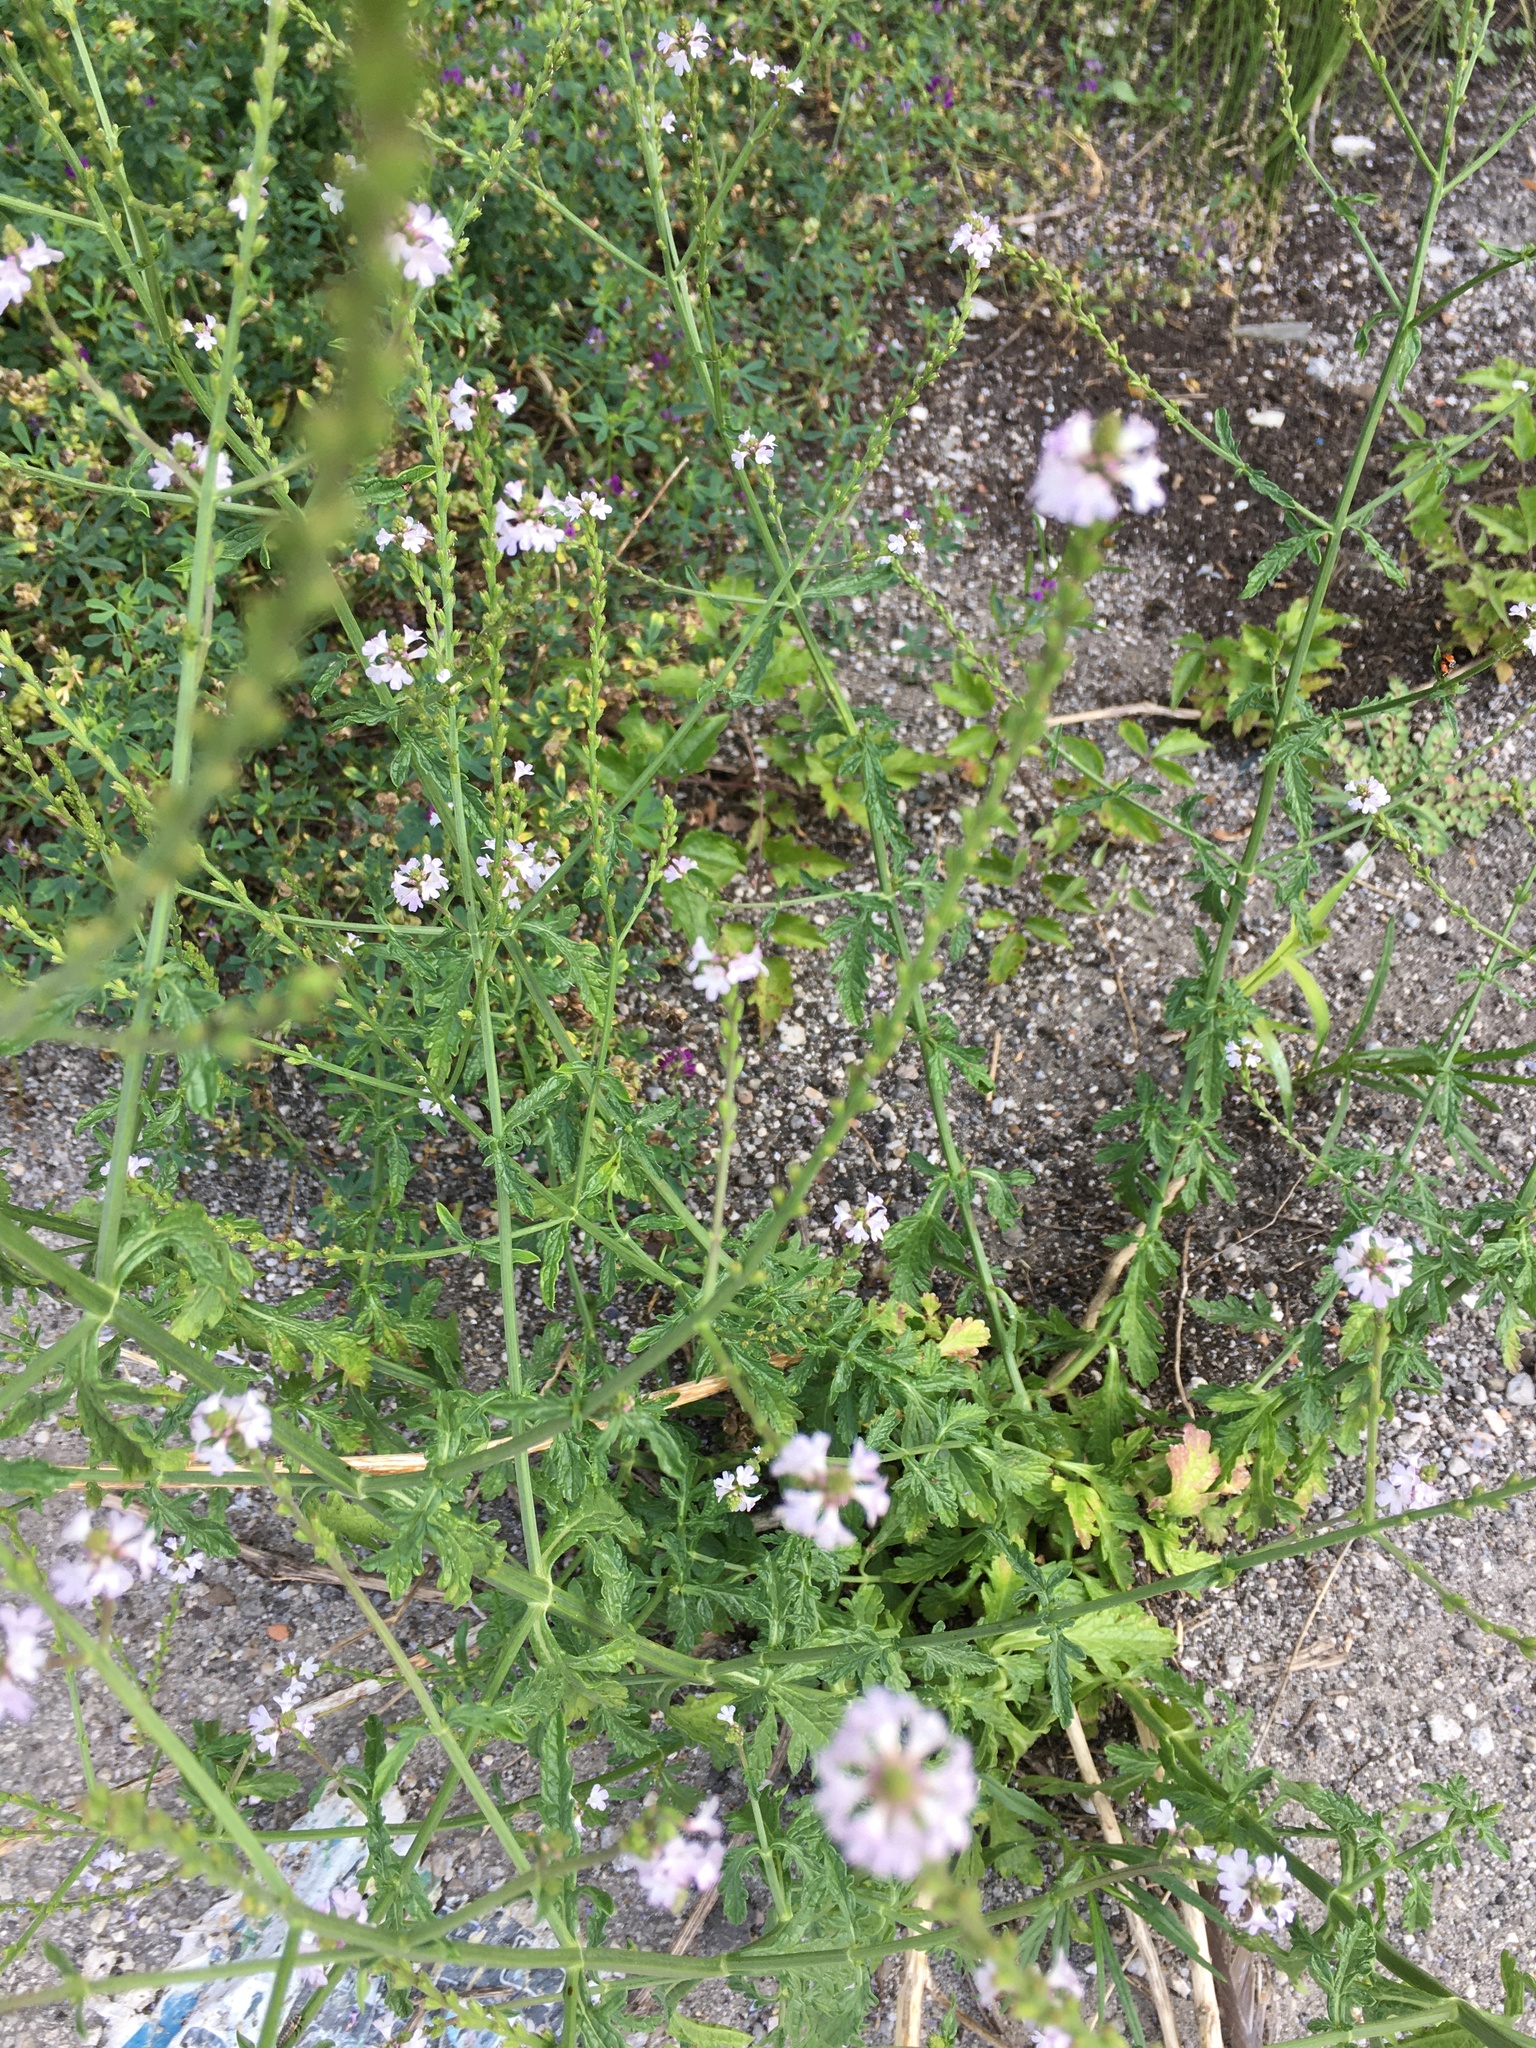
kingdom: Plantae
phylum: Tracheophyta
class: Magnoliopsida
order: Lamiales
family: Verbenaceae
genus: Verbena
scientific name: Verbena officinalis
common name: Vervain
